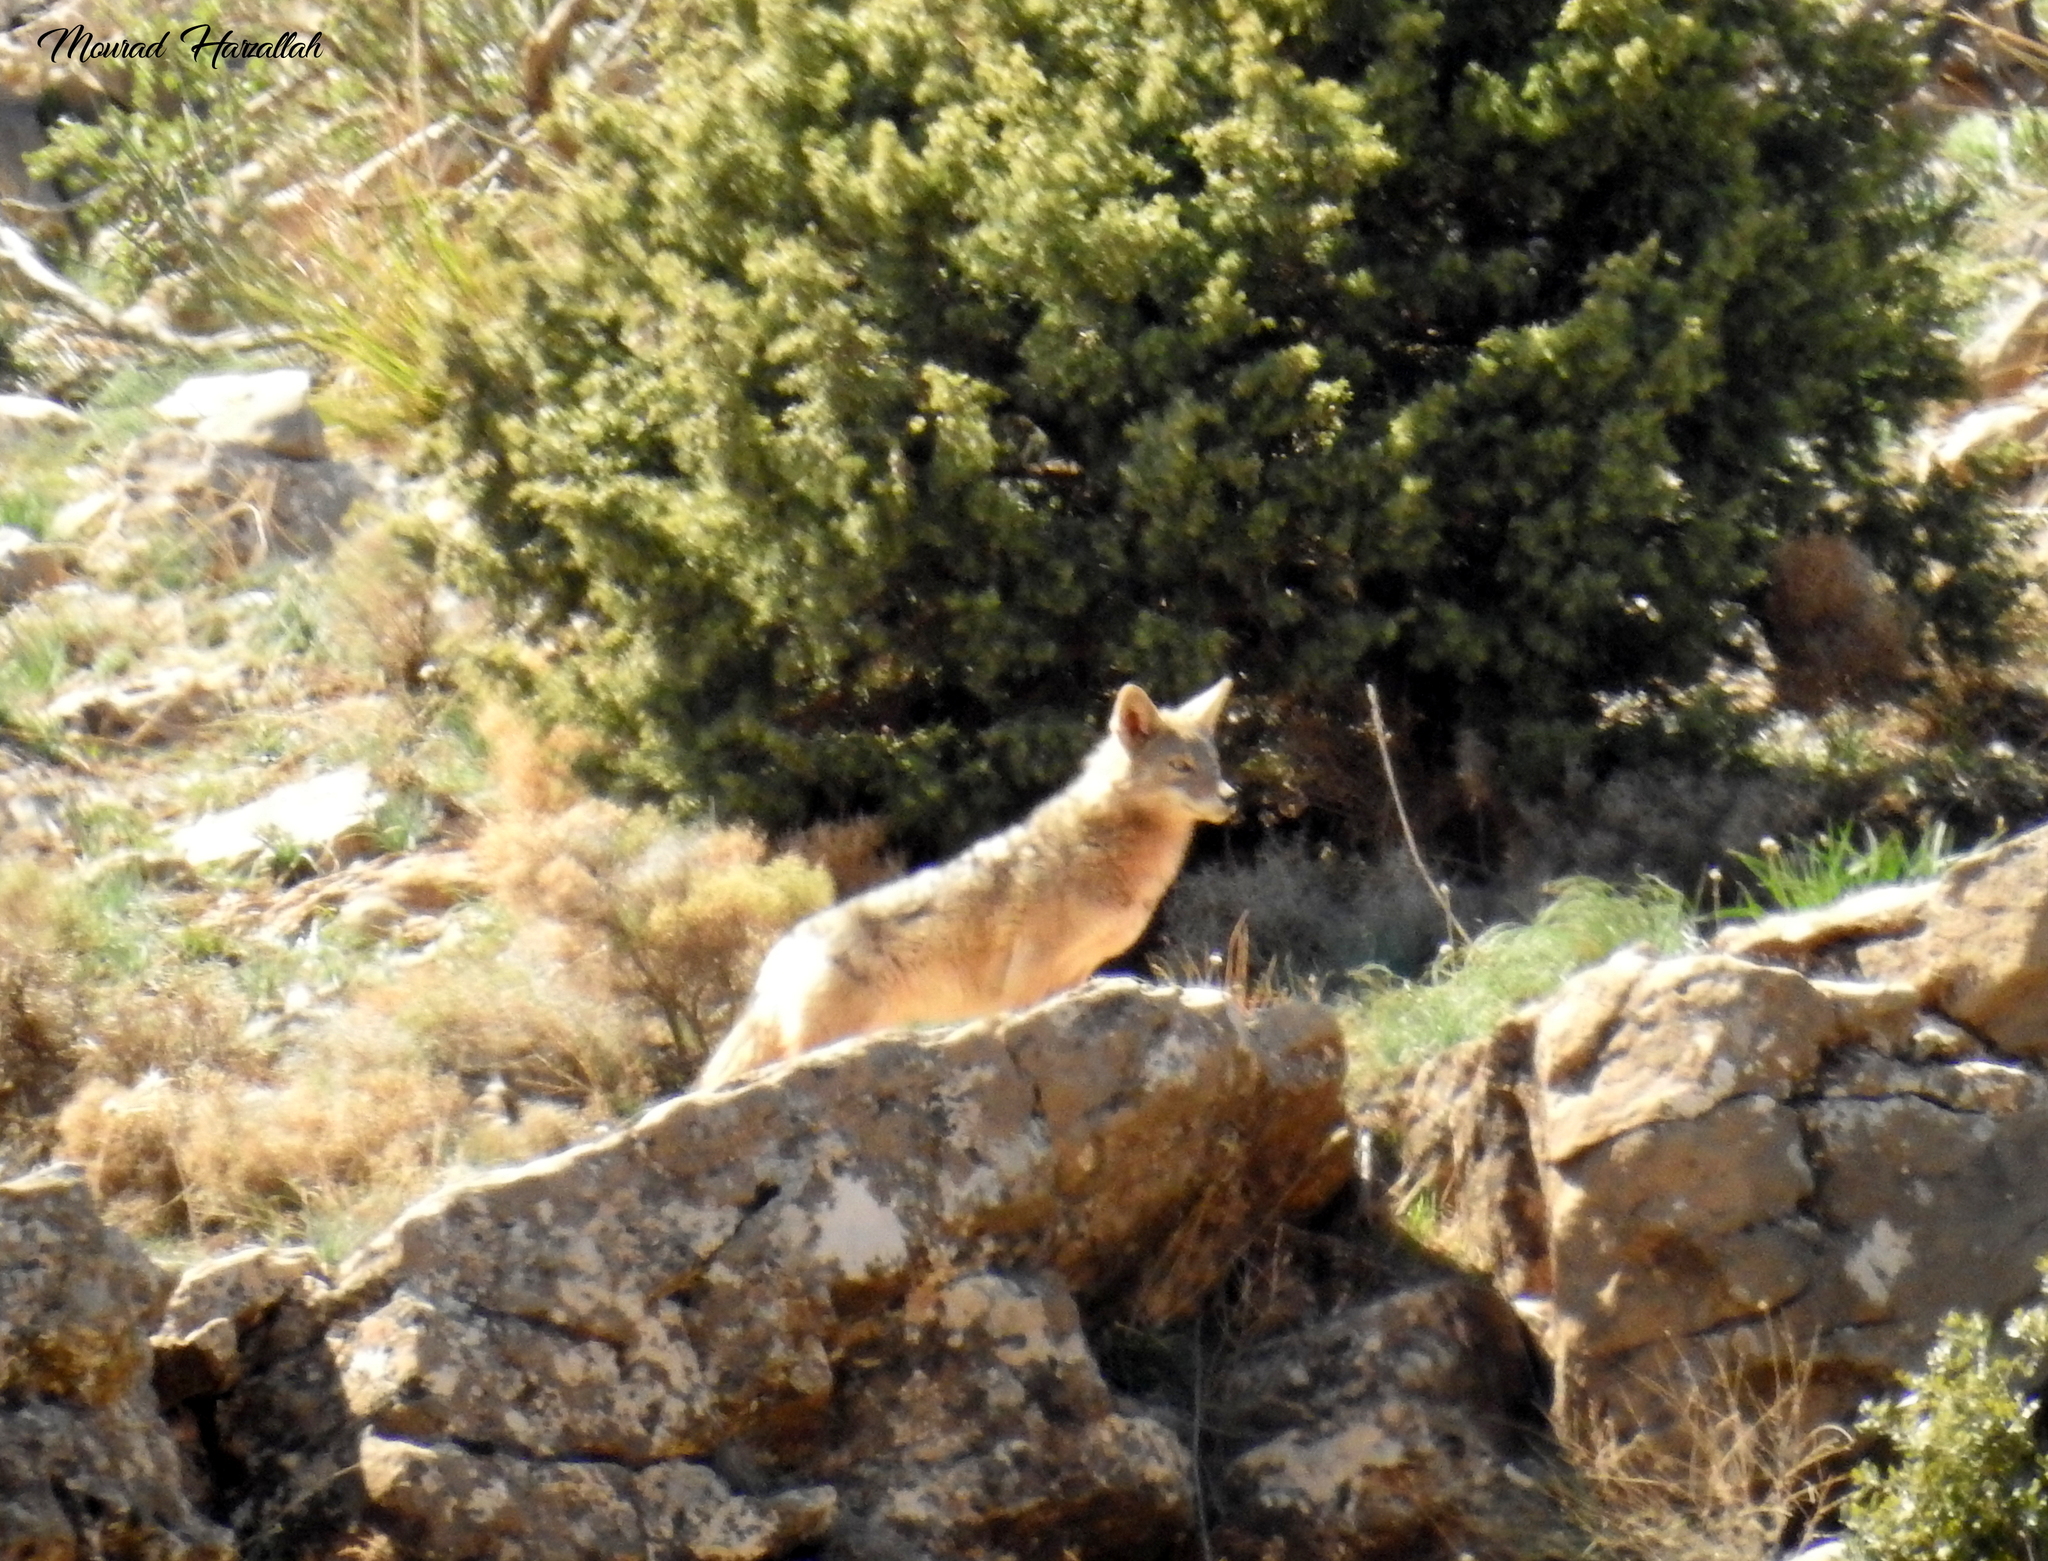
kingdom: Animalia
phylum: Chordata
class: Mammalia
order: Carnivora
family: Canidae
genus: Canis
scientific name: Canis lupaster
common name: African golden wolf
